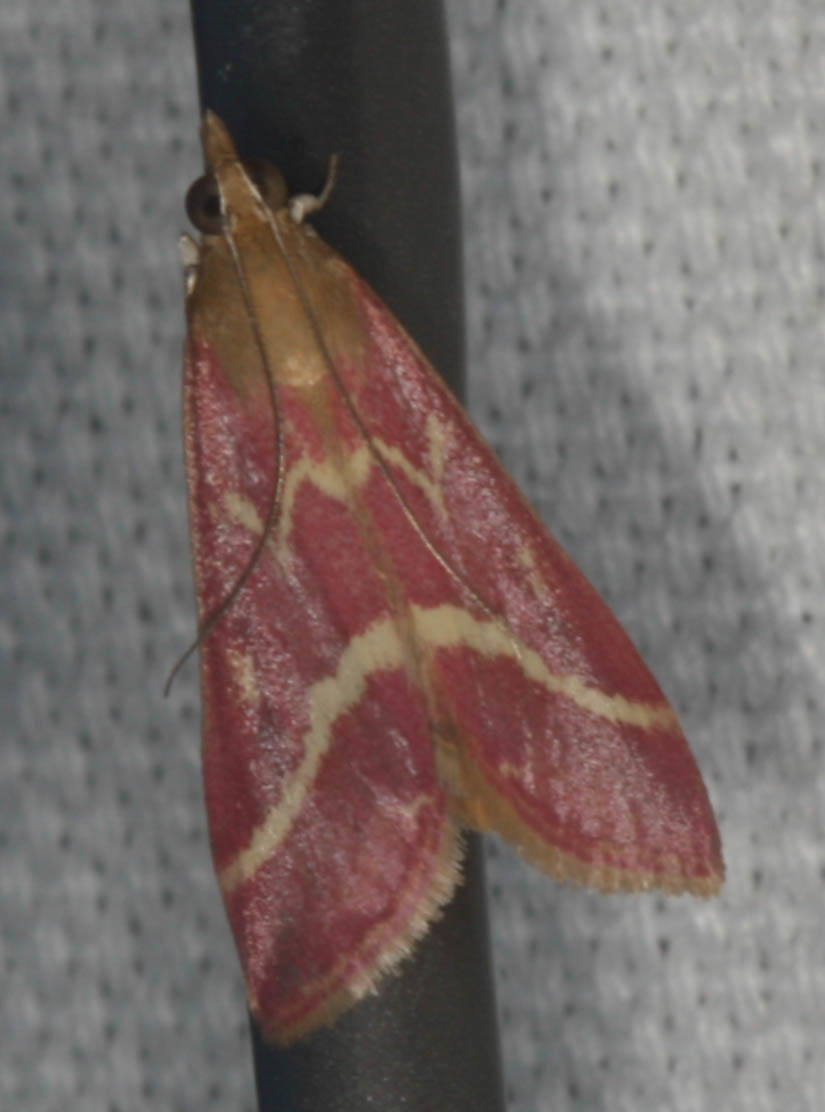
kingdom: Animalia
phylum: Arthropoda
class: Insecta
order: Lepidoptera
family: Crambidae
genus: Pyrausta
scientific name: Pyrausta volupialis
